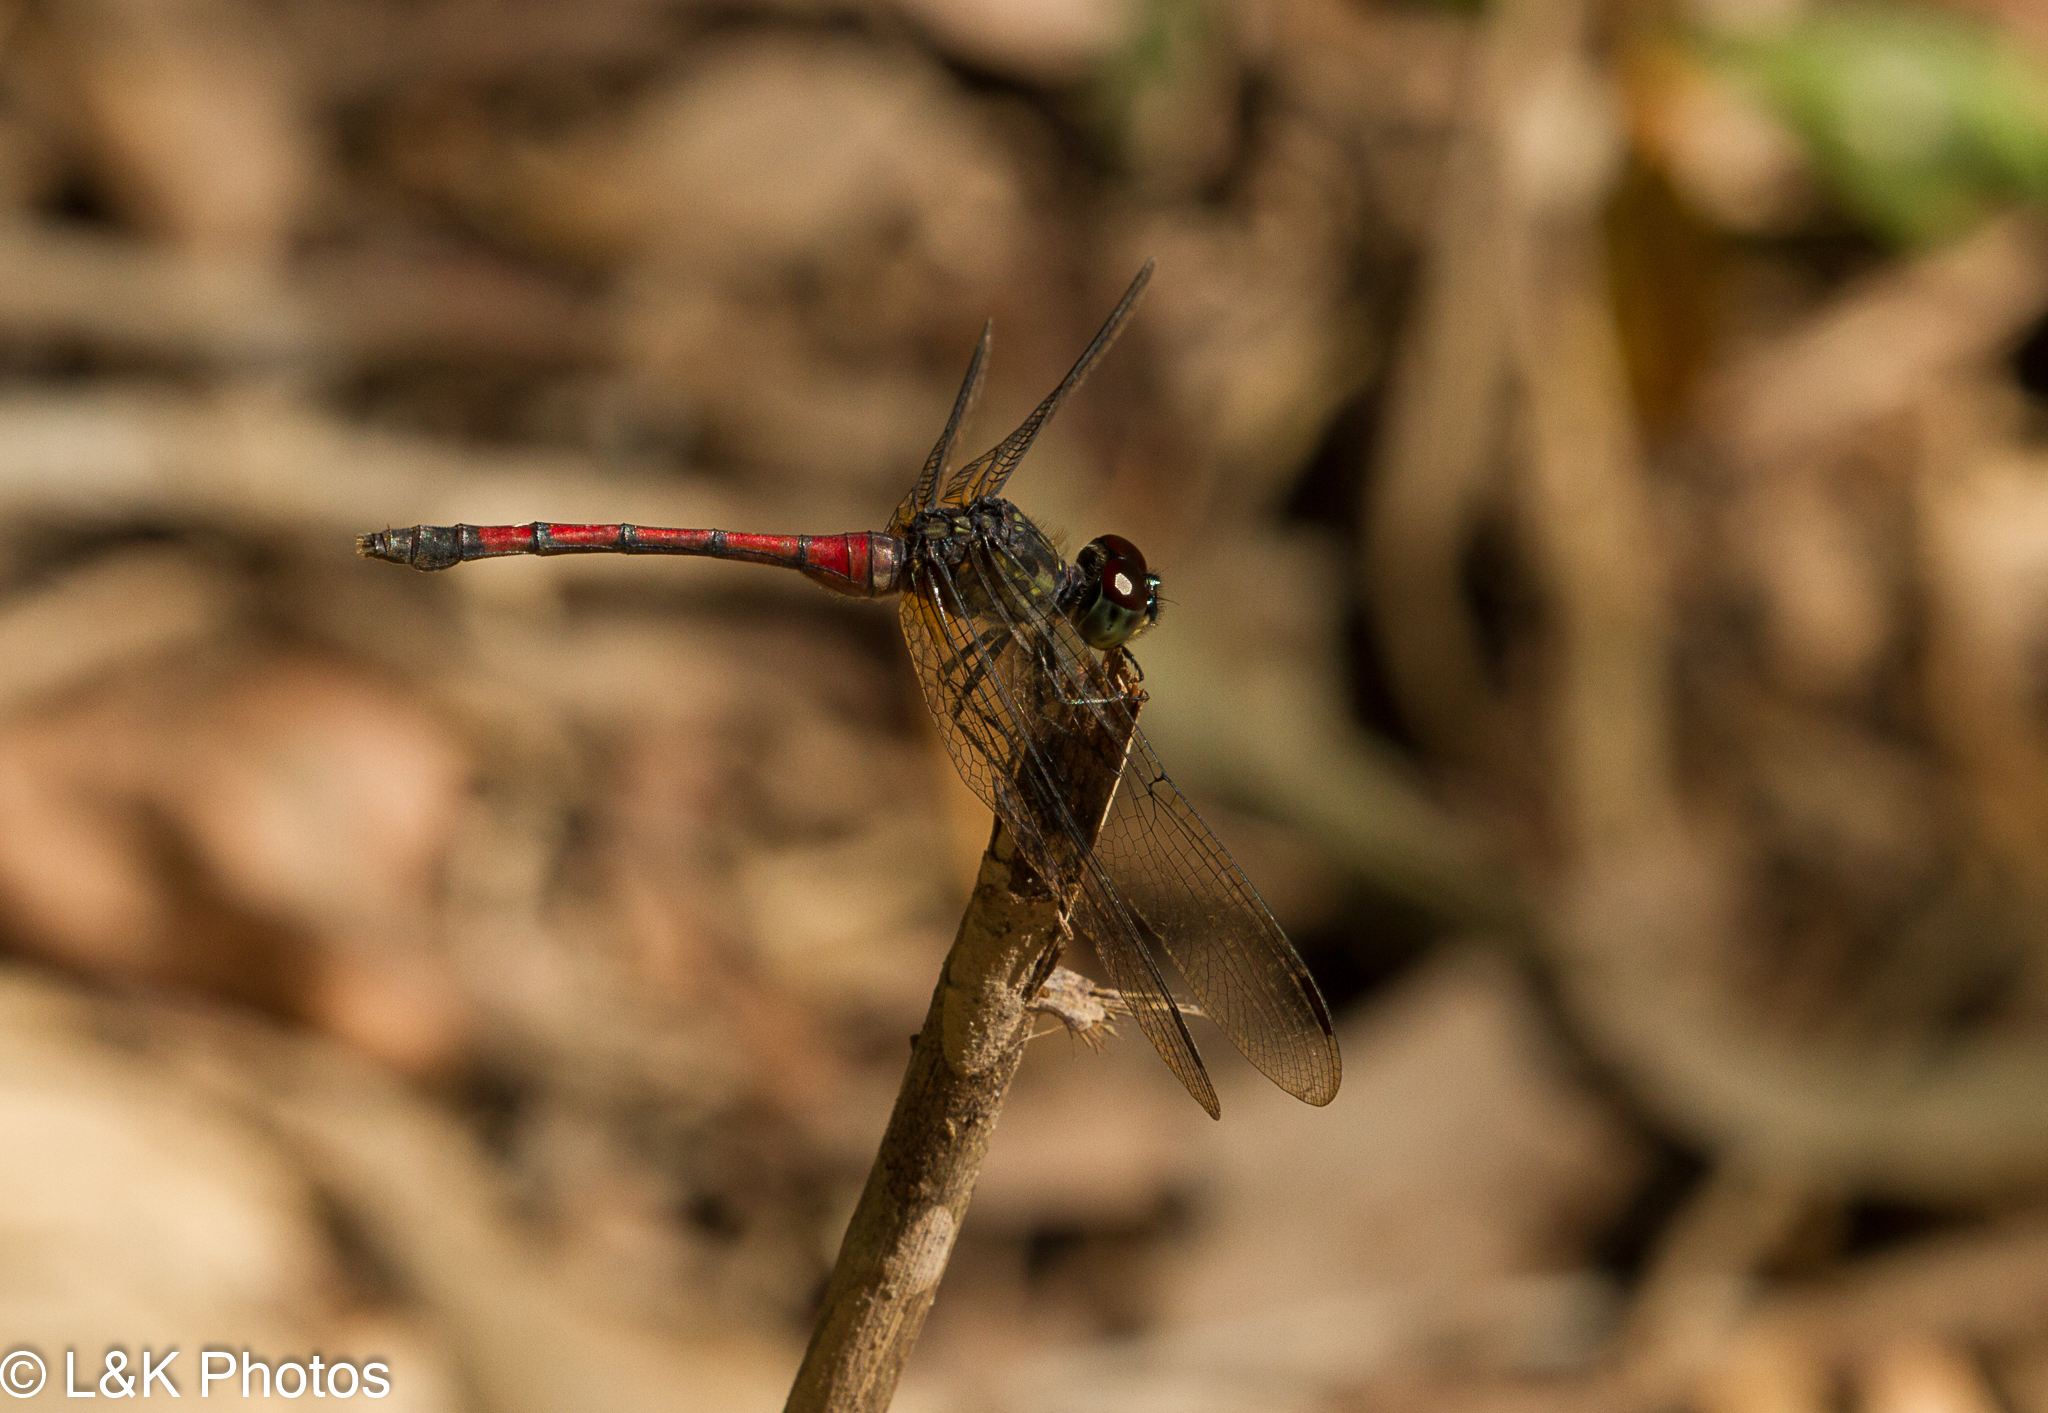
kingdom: Animalia
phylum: Arthropoda
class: Insecta
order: Odonata
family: Libellulidae
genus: Agrionoptera
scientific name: Agrionoptera insignis
